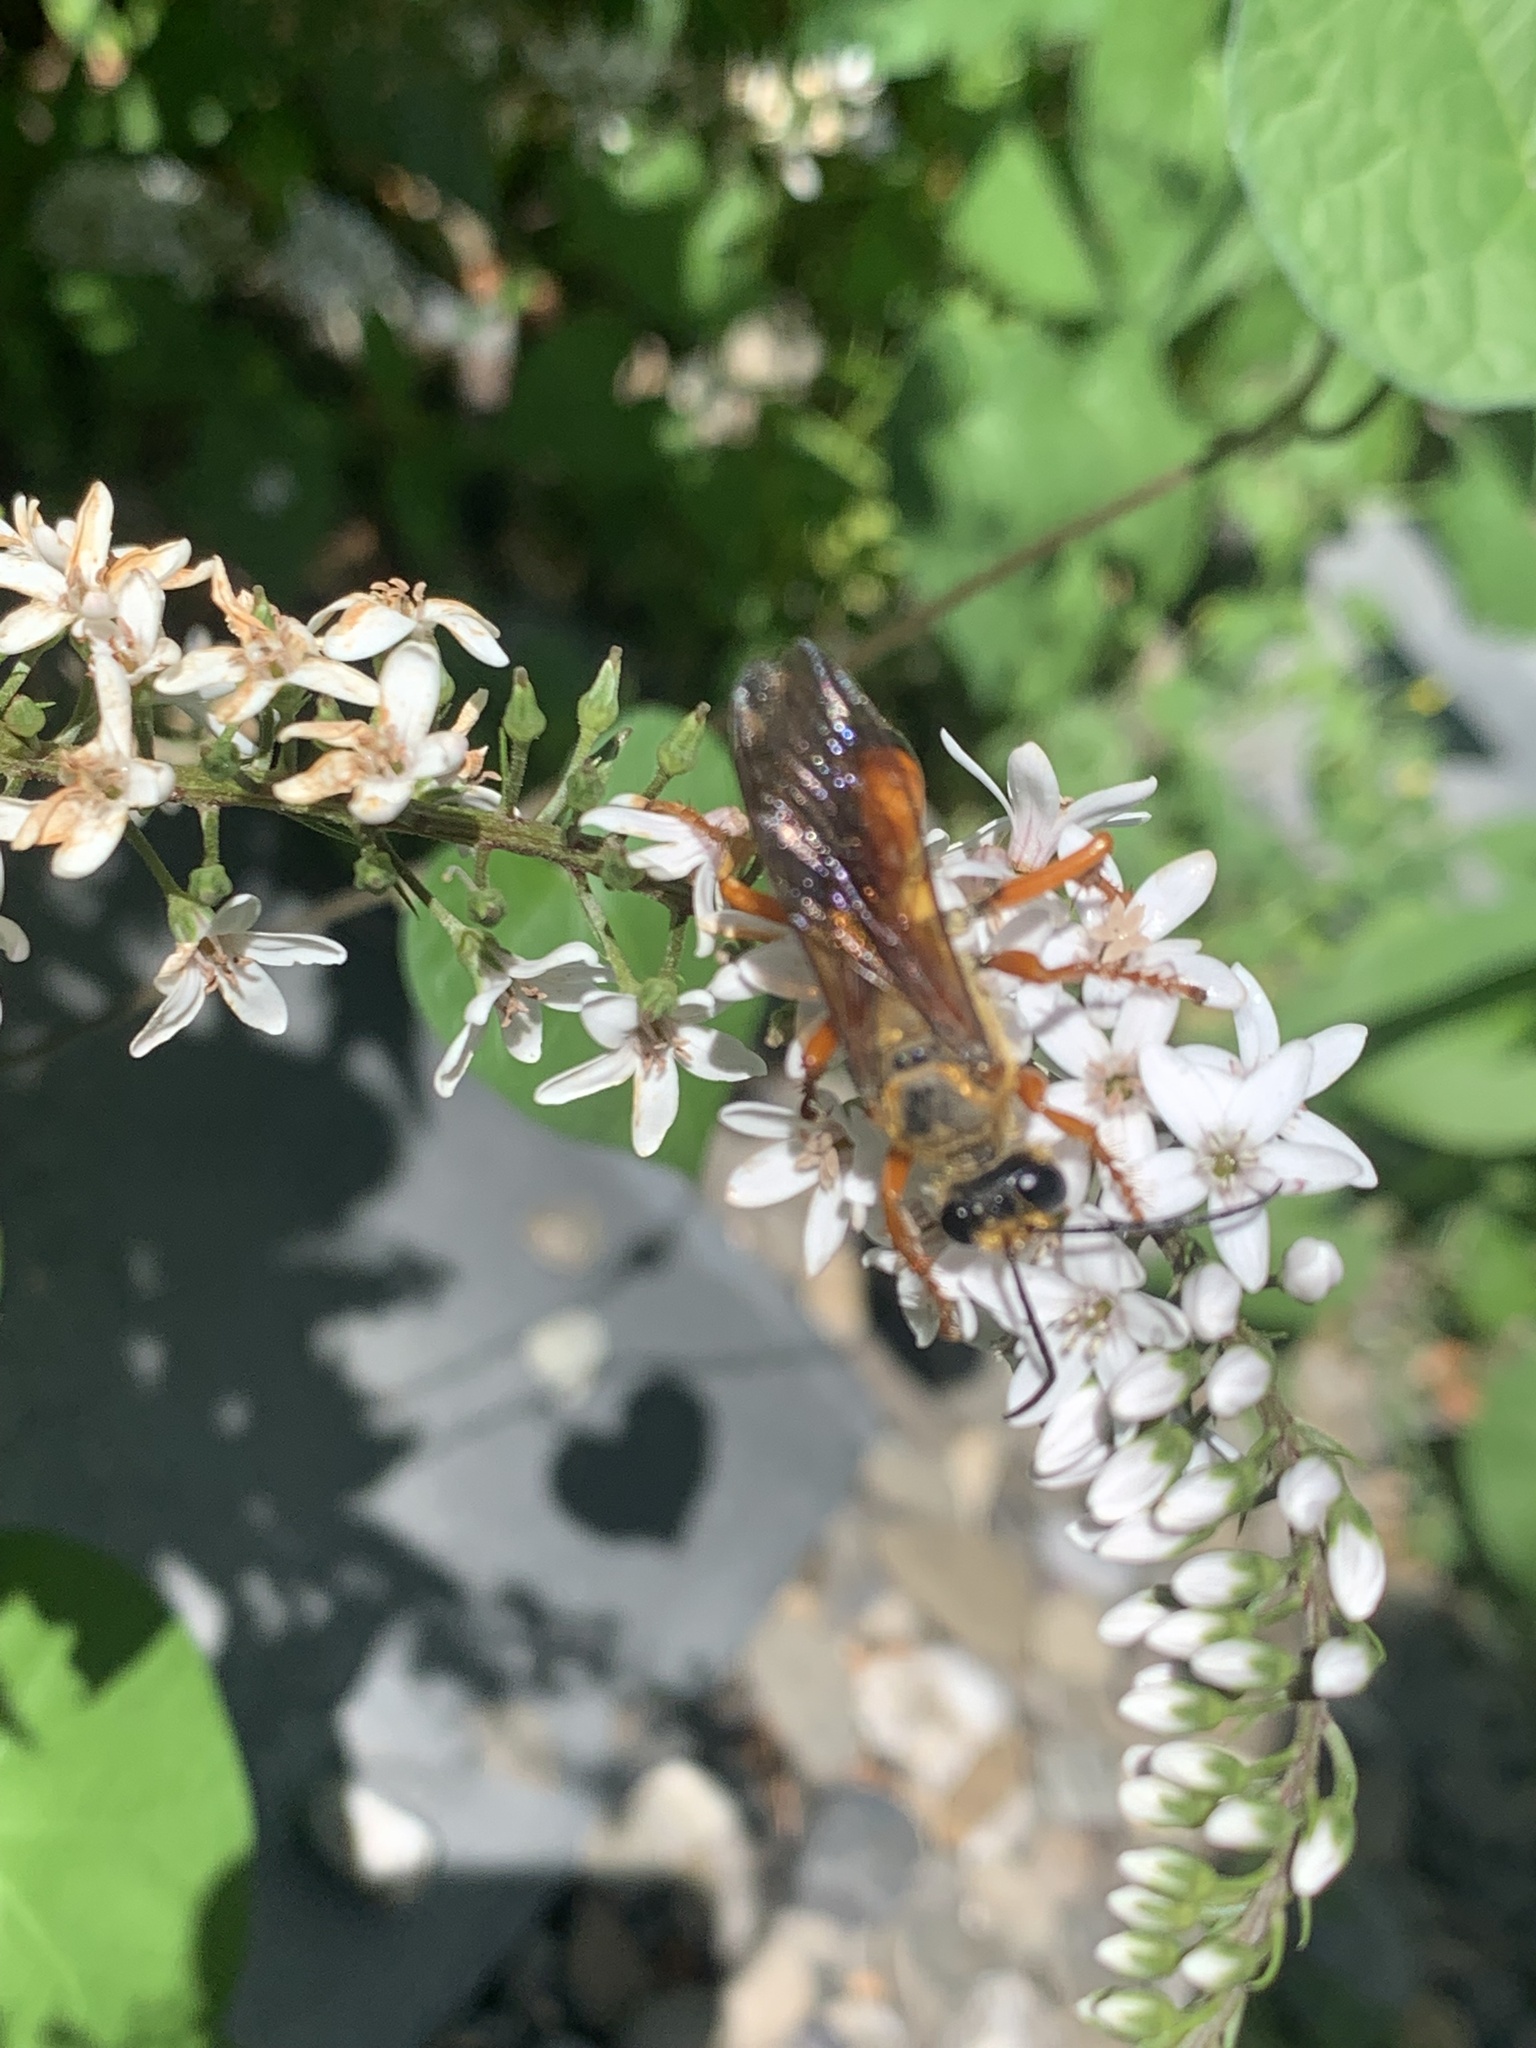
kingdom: Animalia
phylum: Arthropoda
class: Insecta
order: Hymenoptera
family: Sphecidae
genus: Sphex
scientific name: Sphex ichneumoneus
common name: Great golden digger wasp
